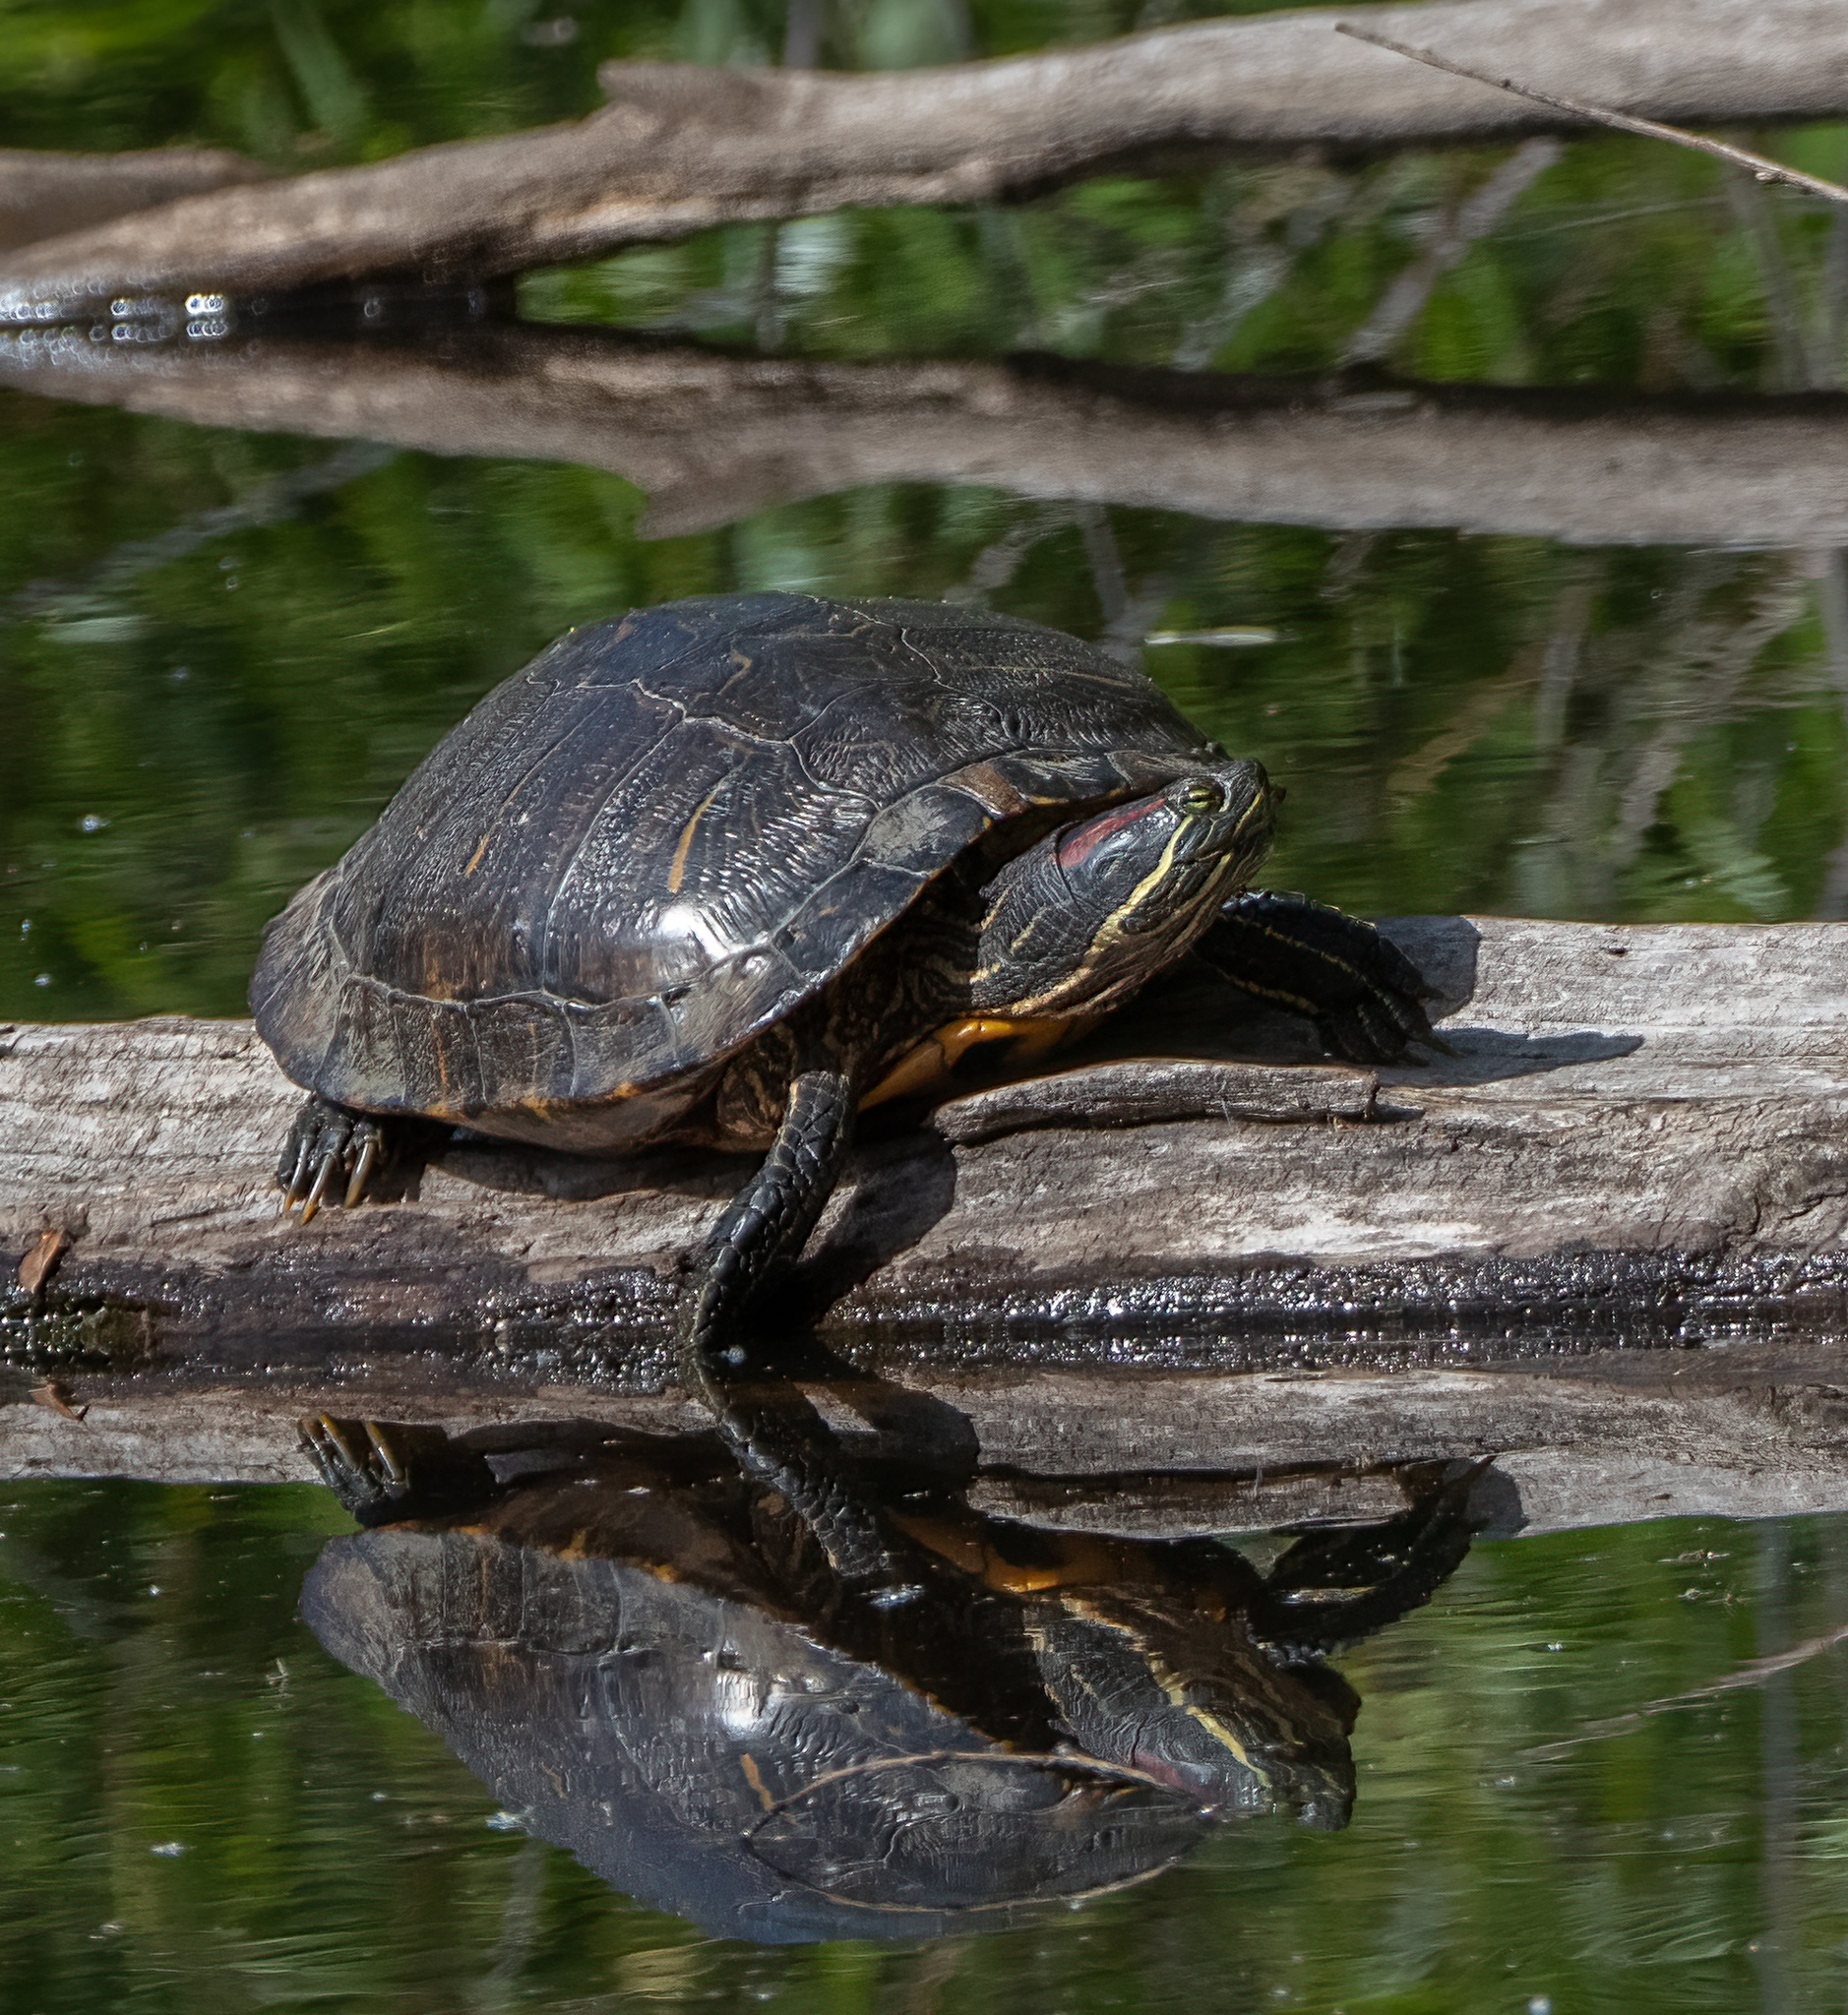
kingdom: Animalia
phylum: Chordata
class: Testudines
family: Emydidae
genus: Trachemys
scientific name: Trachemys scripta
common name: Slider
